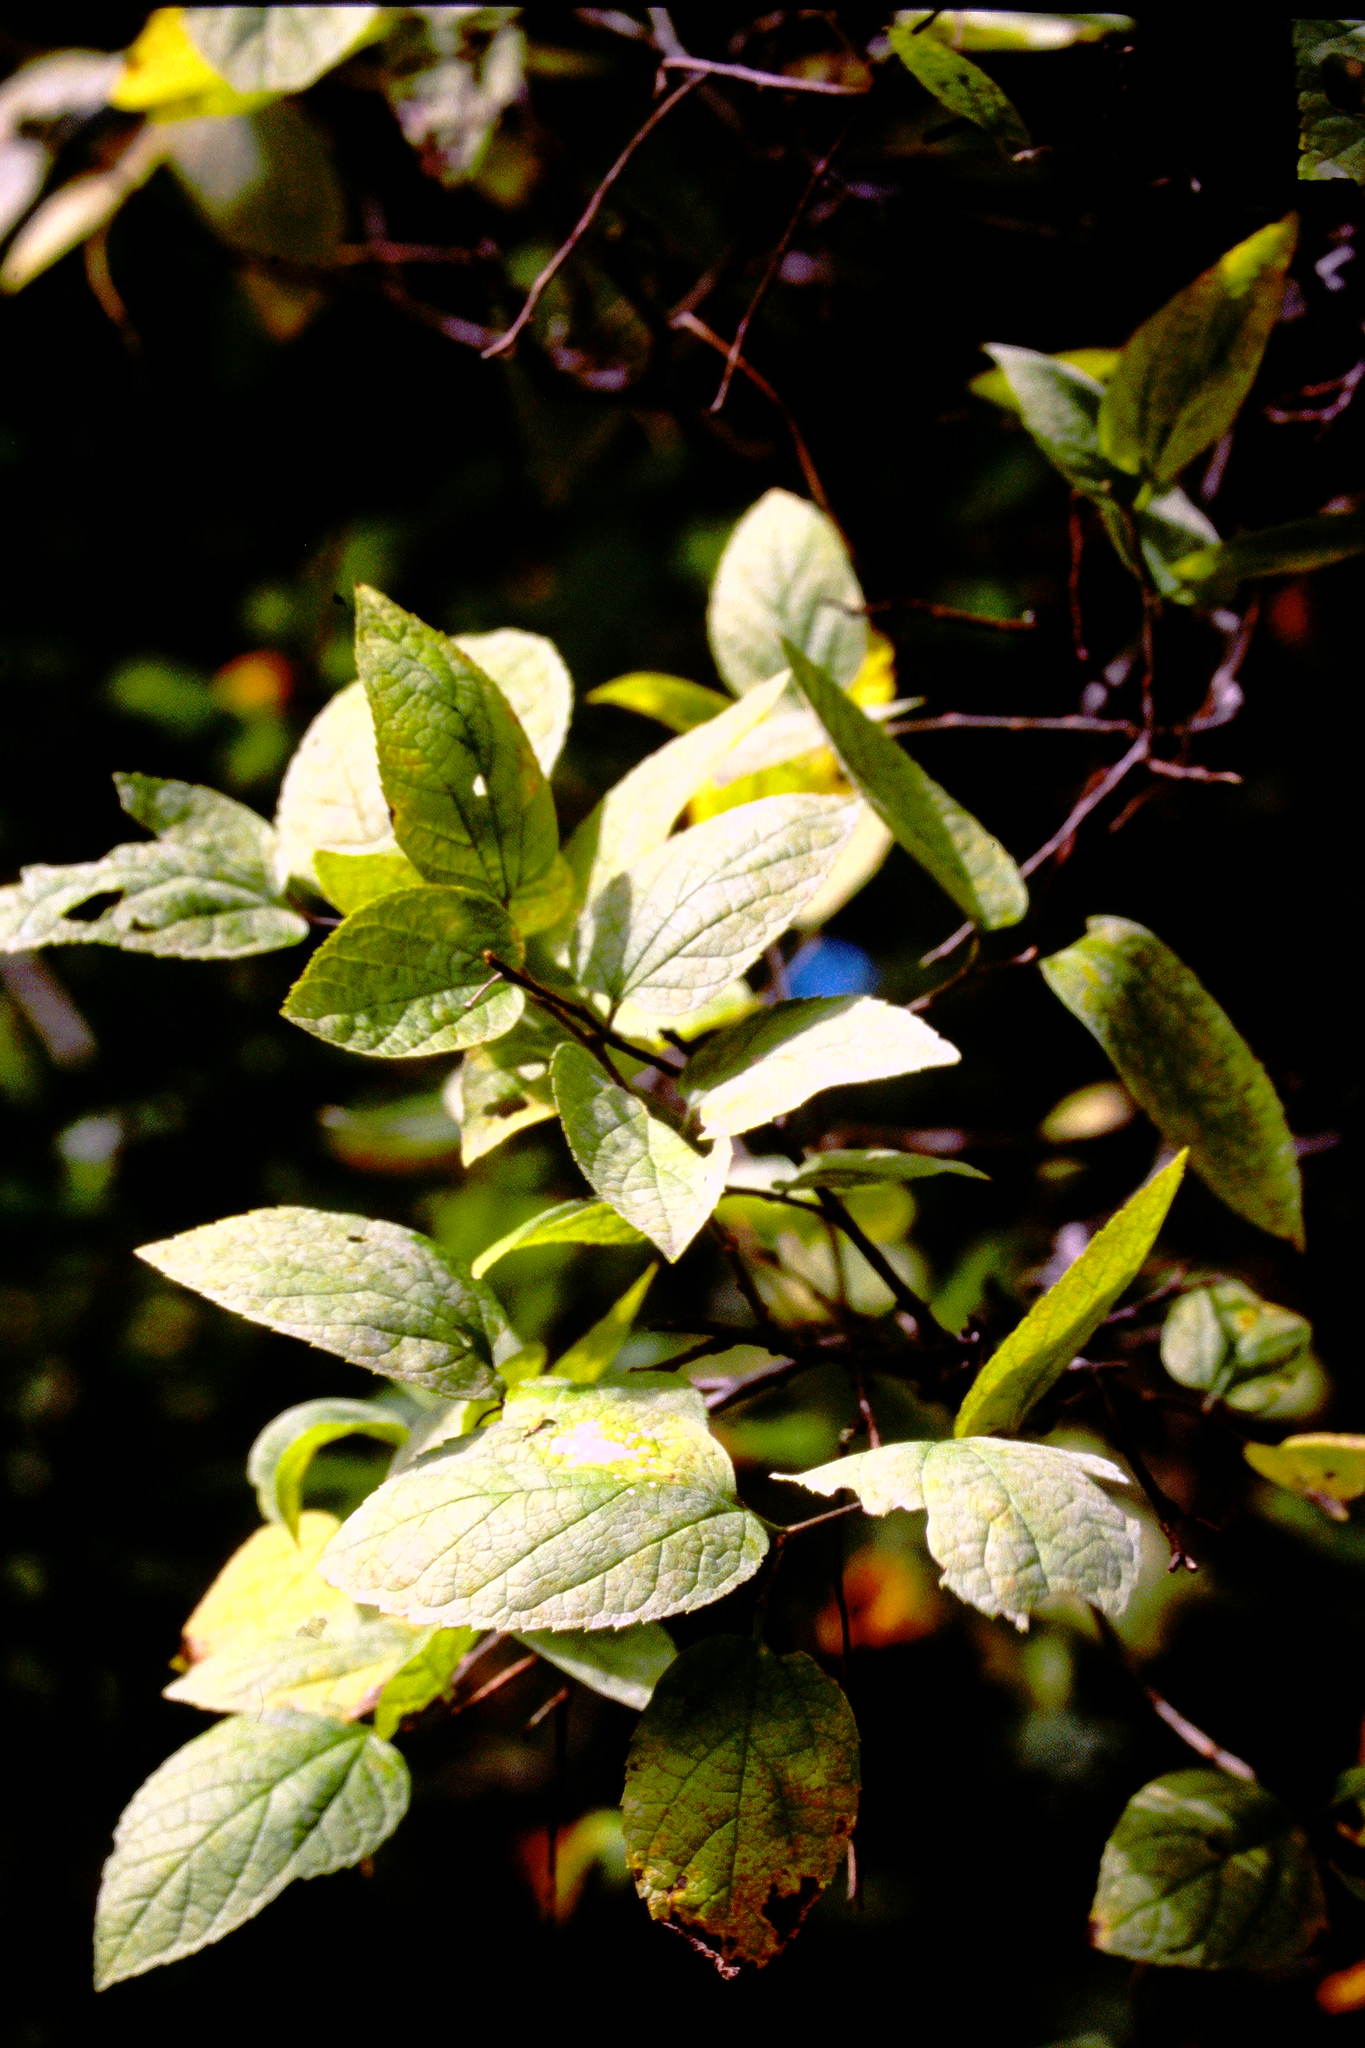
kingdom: Plantae
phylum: Tracheophyta
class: Magnoliopsida
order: Rosales
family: Cannabaceae
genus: Celtis
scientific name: Celtis tenuifolia
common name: Georgia hackberry
